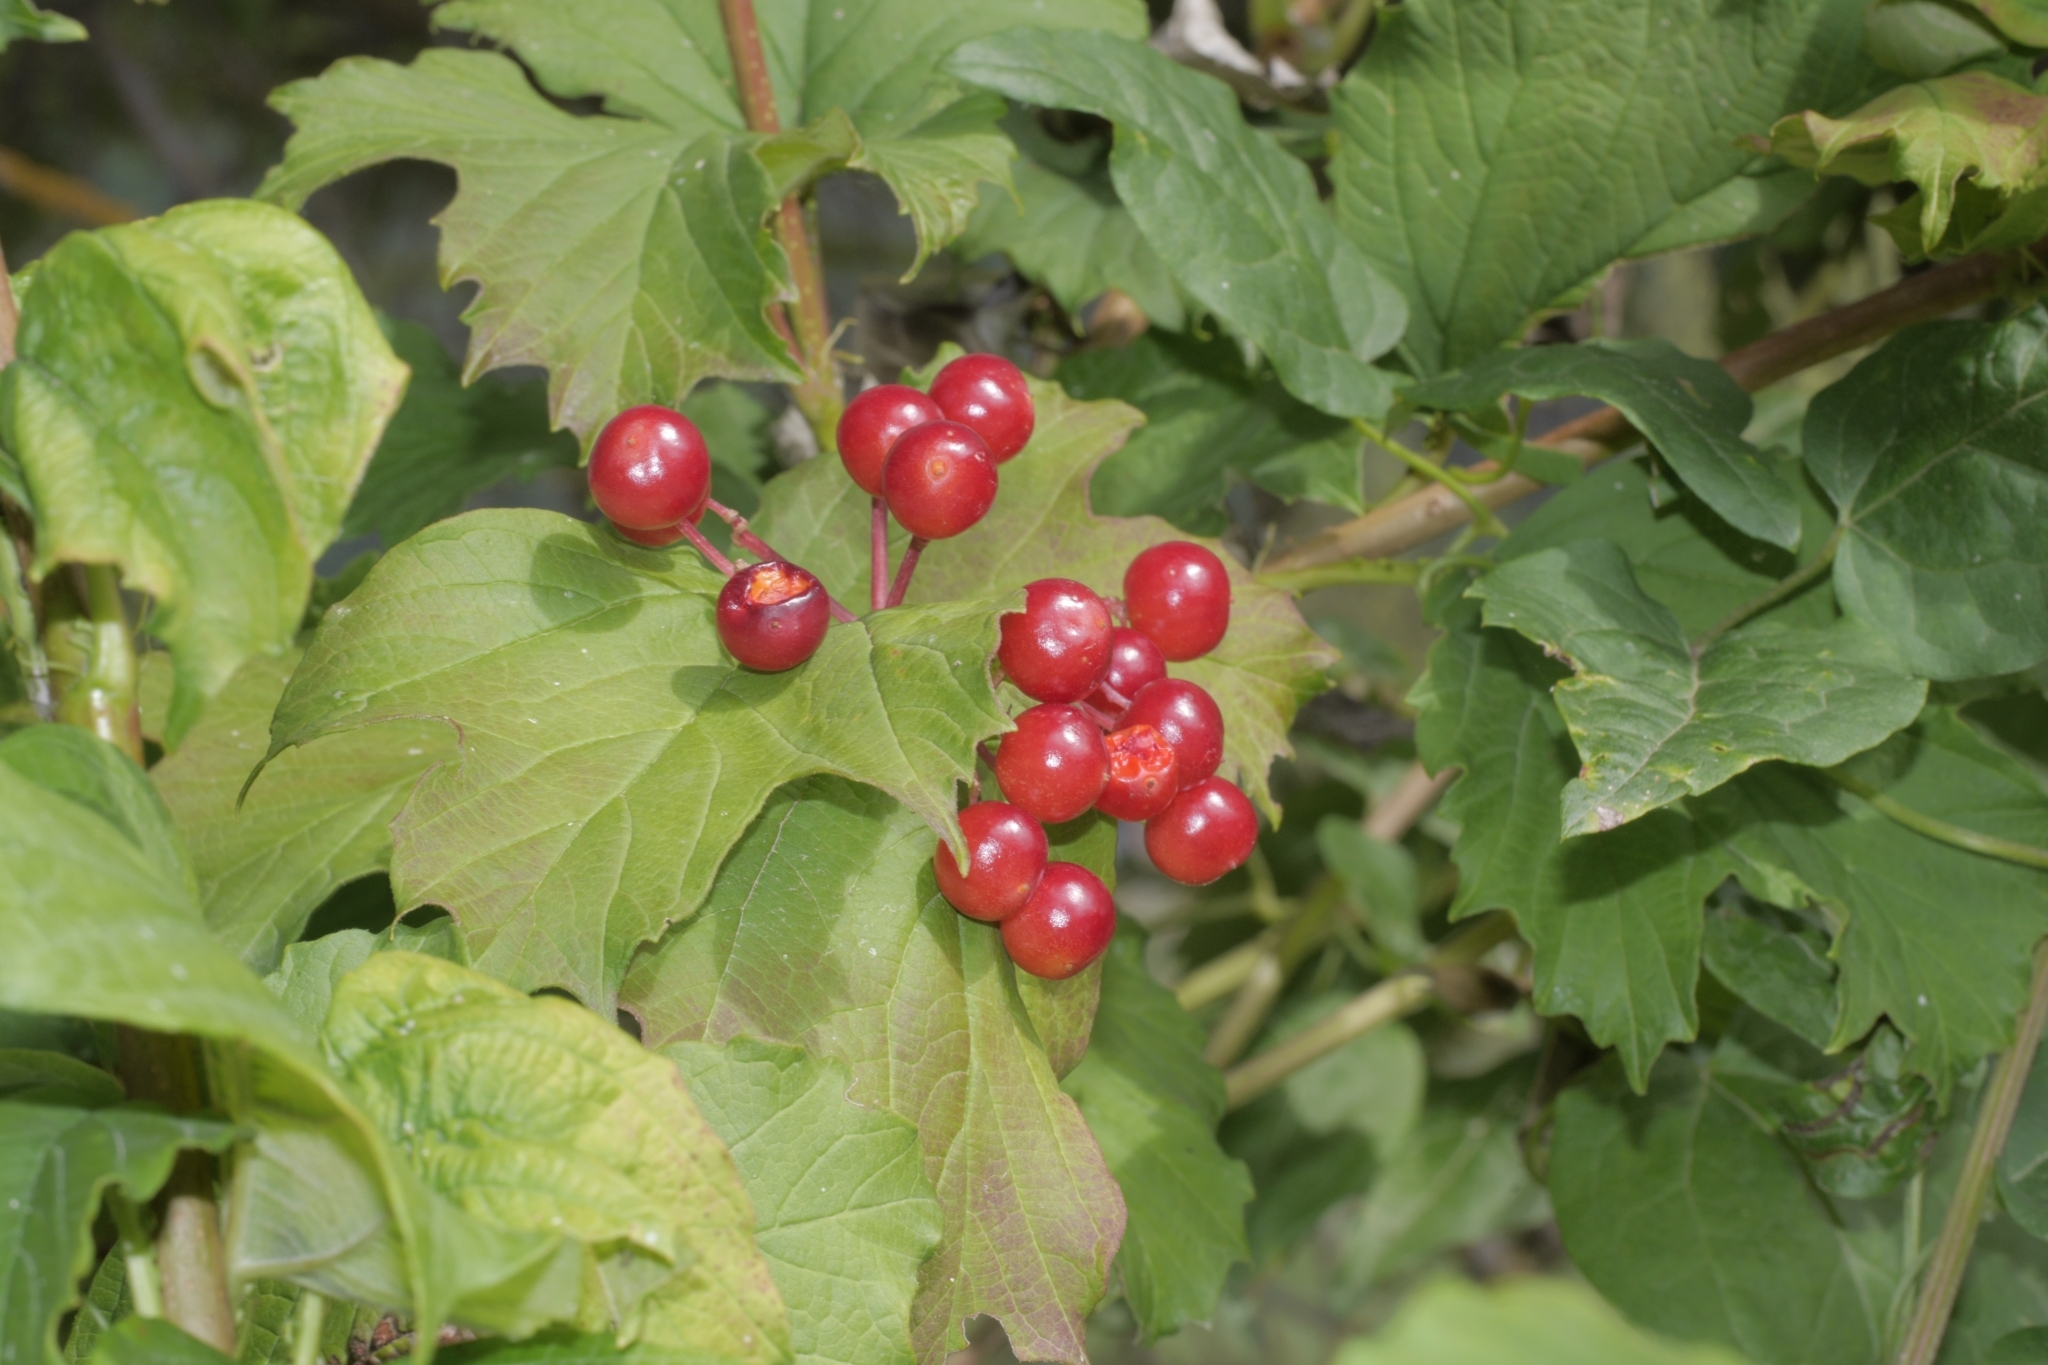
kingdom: Plantae
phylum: Tracheophyta
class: Magnoliopsida
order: Dipsacales
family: Viburnaceae
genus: Viburnum
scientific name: Viburnum opulus
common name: Guelder-rose
